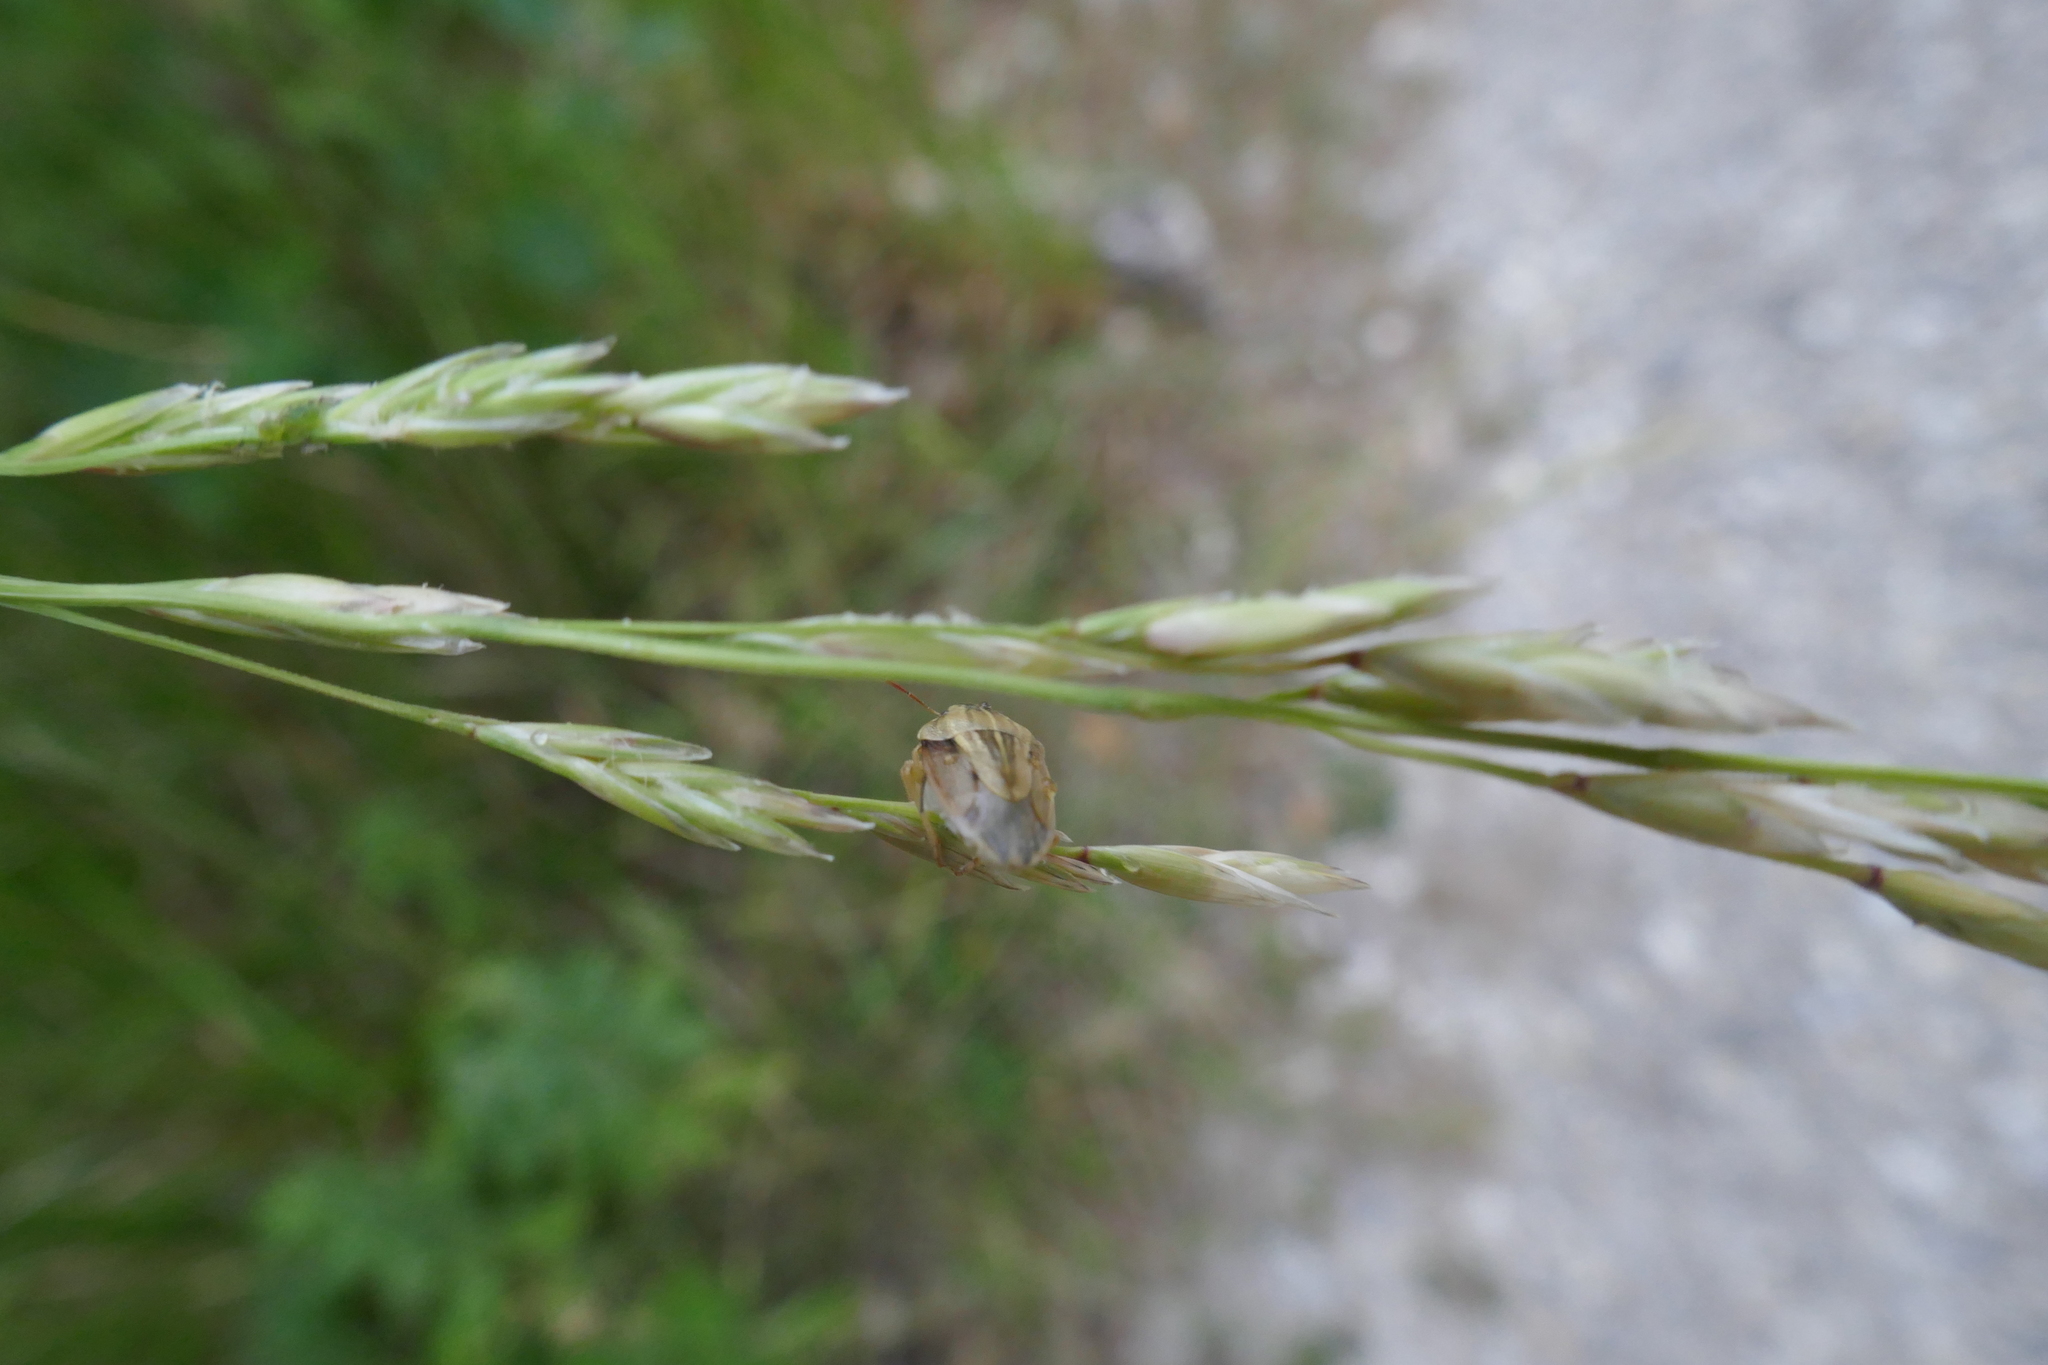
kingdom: Animalia
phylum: Arthropoda
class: Insecta
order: Hemiptera
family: Pentatomidae
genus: Aelia
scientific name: Aelia acuminata
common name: Bishop's mitre
